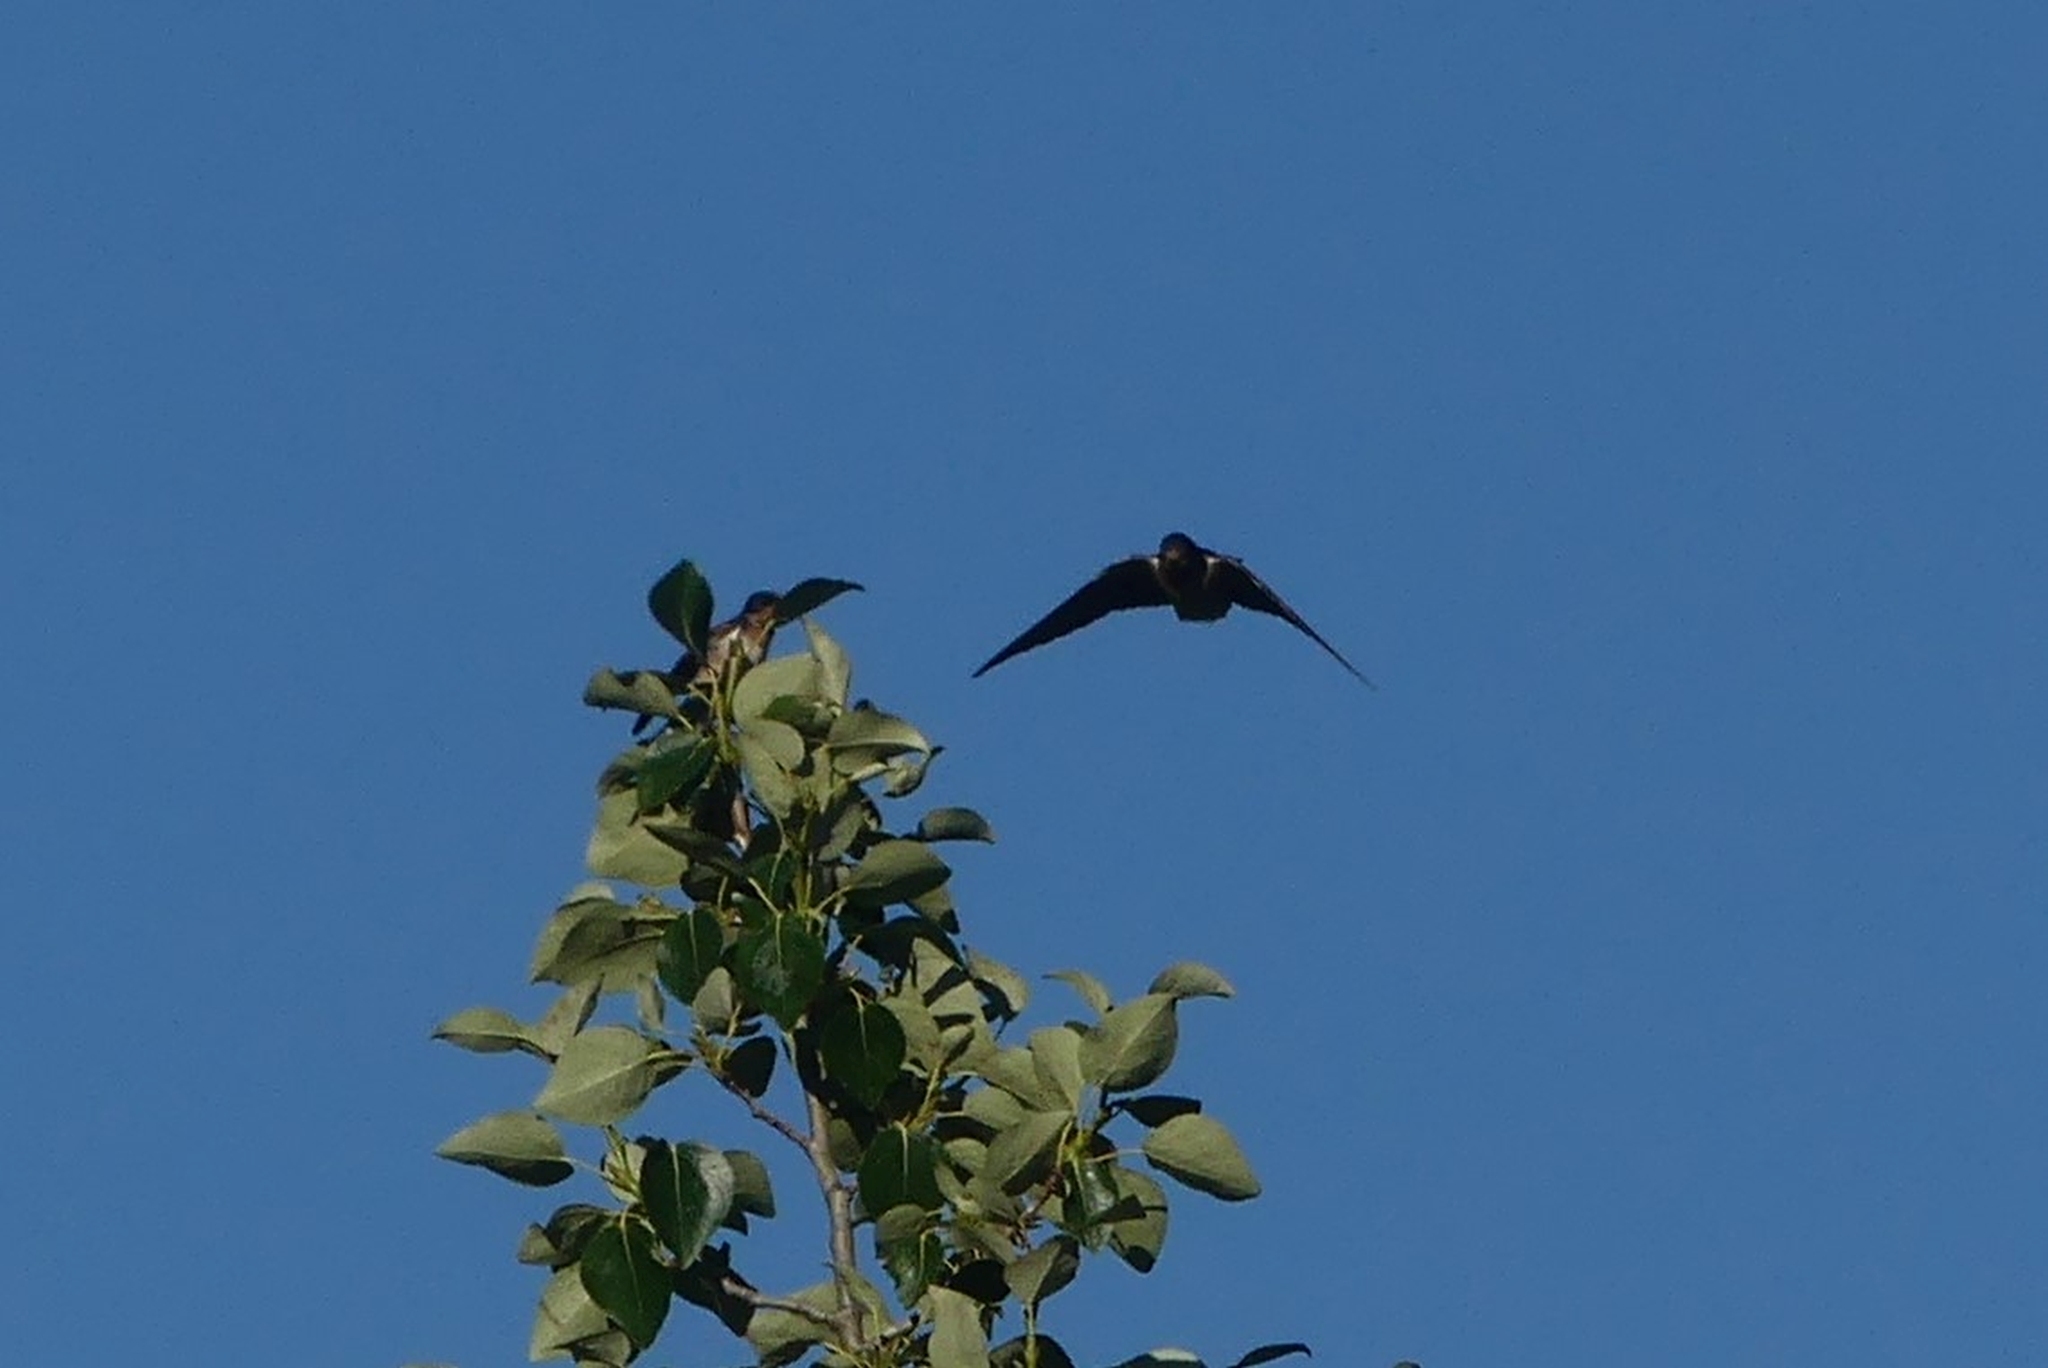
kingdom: Animalia
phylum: Chordata
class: Aves
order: Passeriformes
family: Hirundinidae
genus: Hirundo
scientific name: Hirundo rustica
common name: Barn swallow
